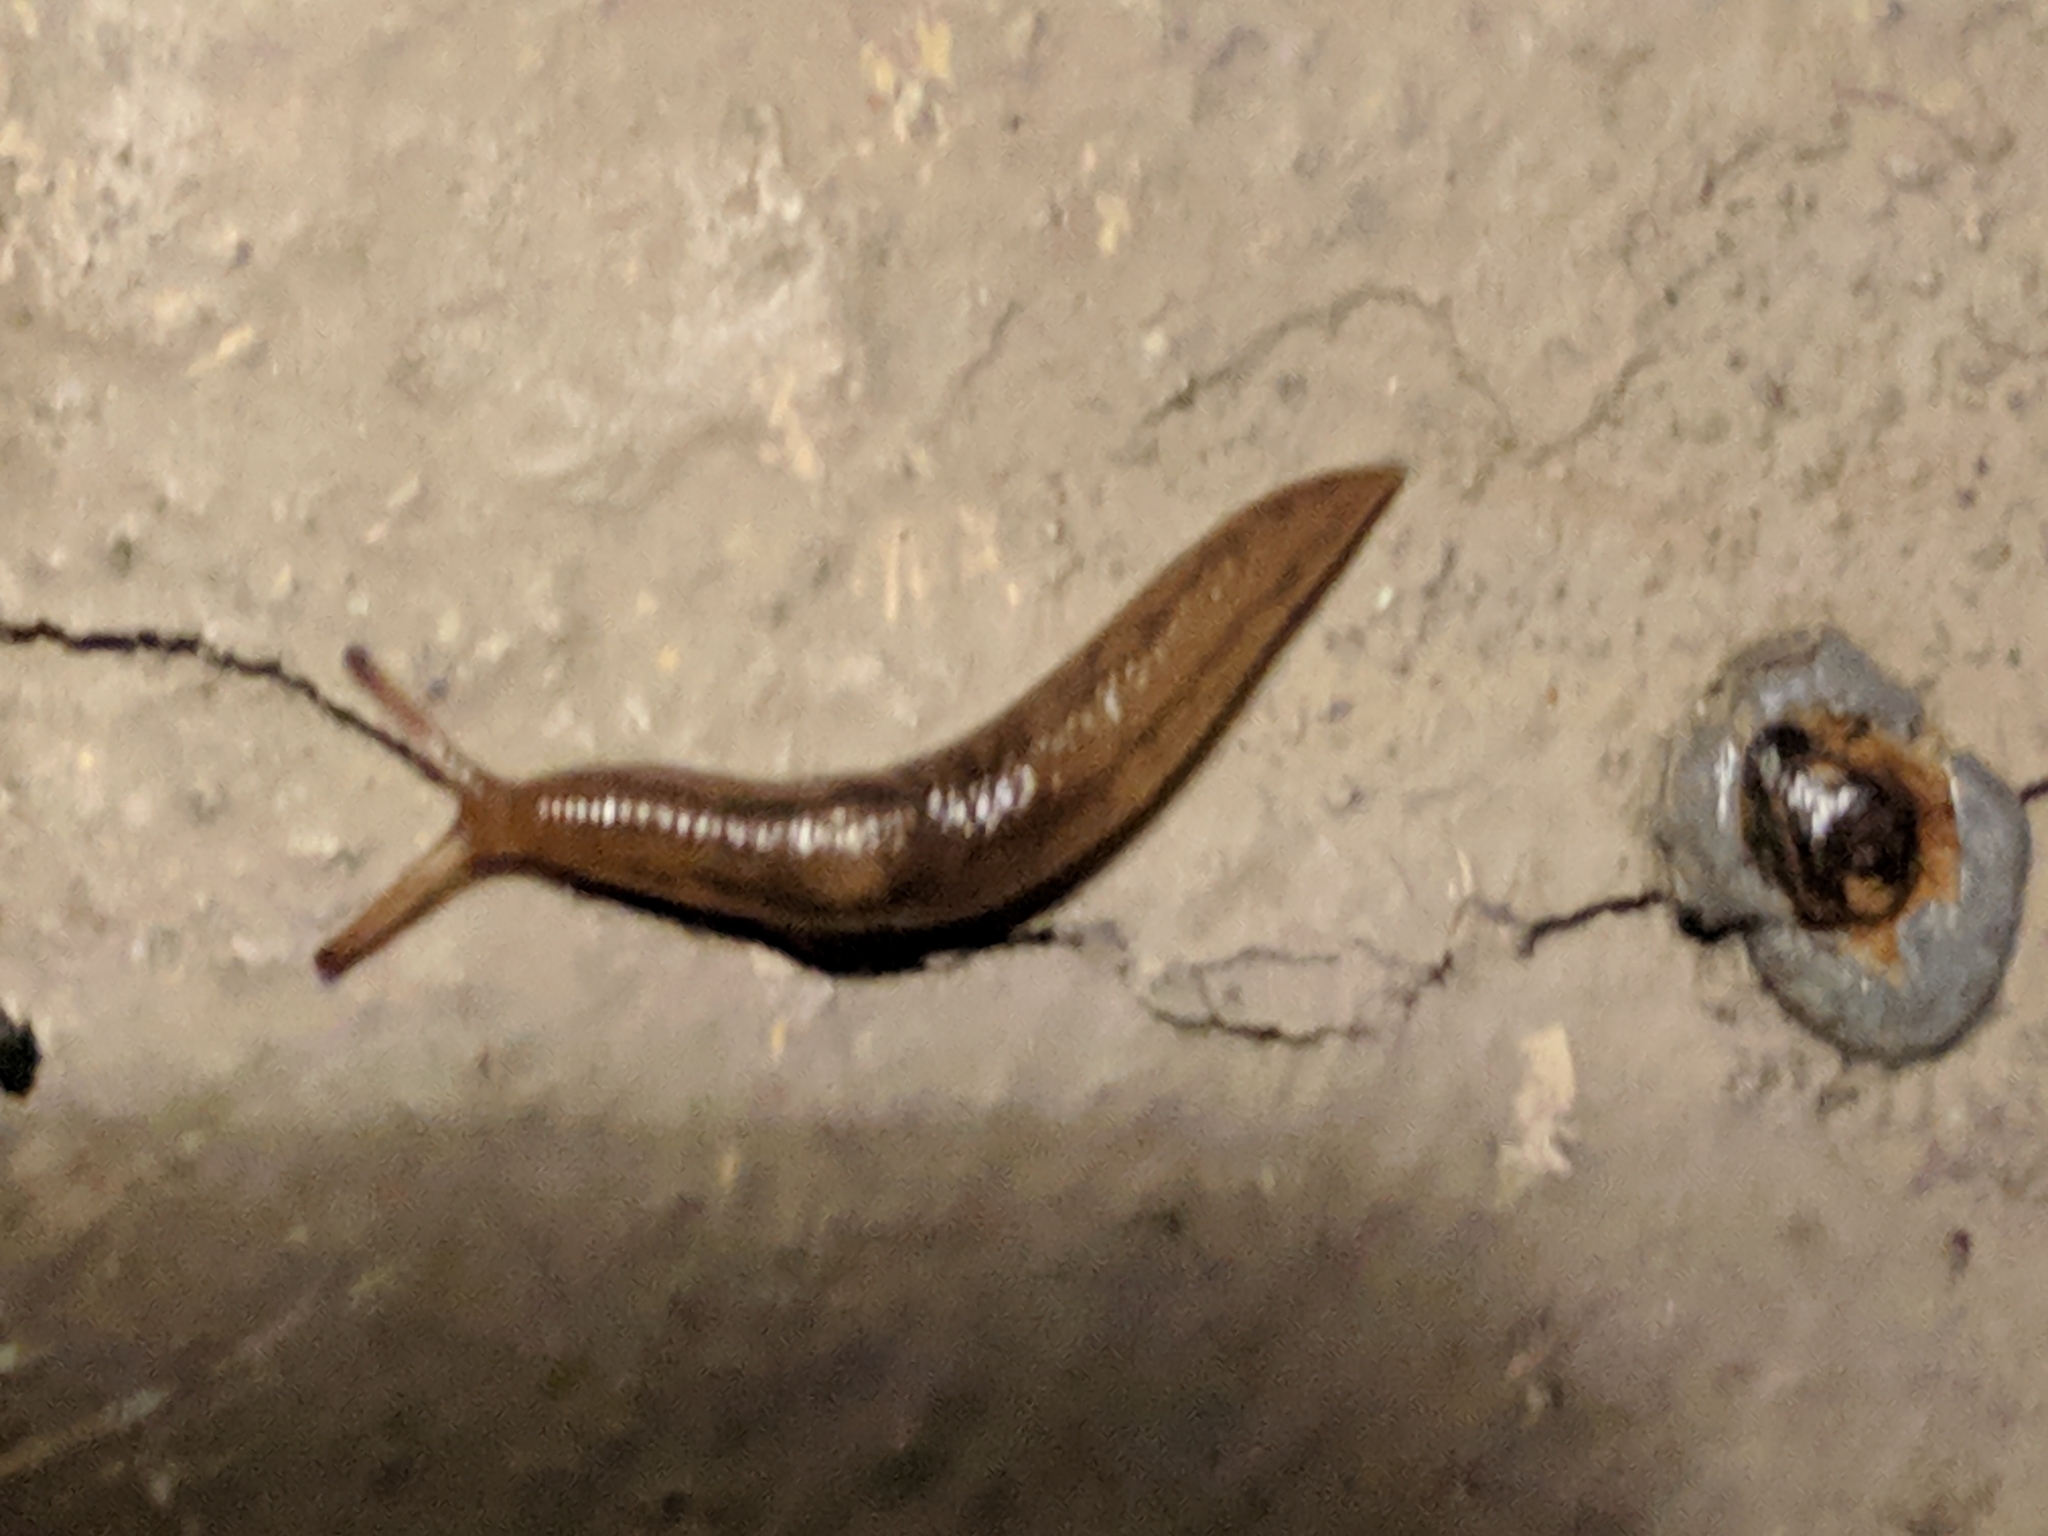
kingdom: Animalia
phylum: Mollusca
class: Gastropoda
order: Stylommatophora
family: Limacidae
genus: Ambigolimax
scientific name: Ambigolimax
